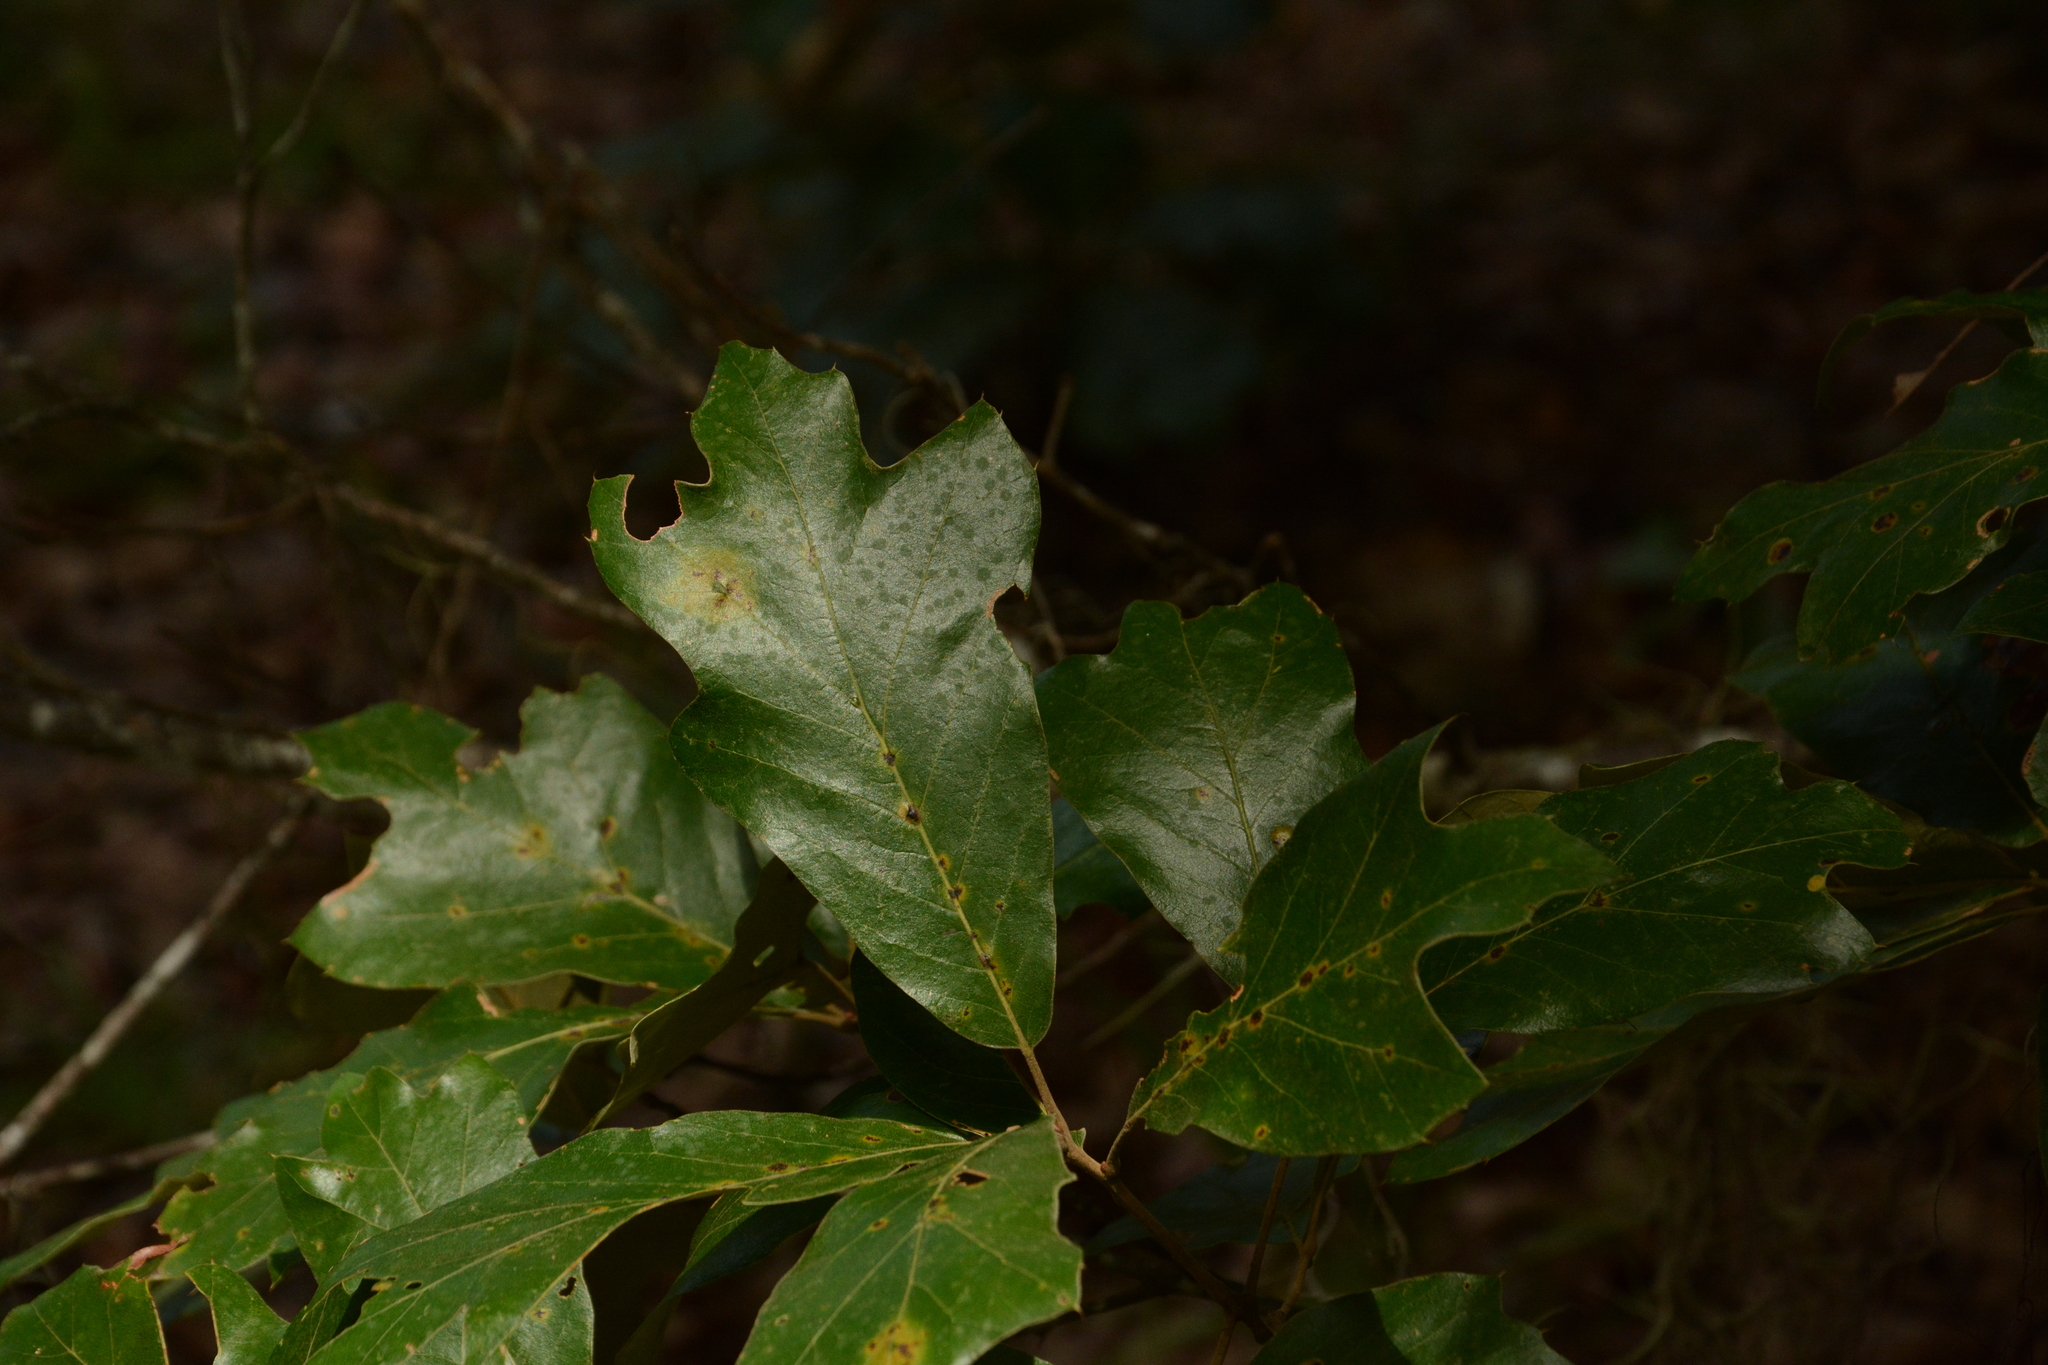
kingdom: Plantae
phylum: Tracheophyta
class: Magnoliopsida
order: Fagales
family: Fagaceae
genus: Quercus
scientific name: Quercus falcata
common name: Southern red oak
